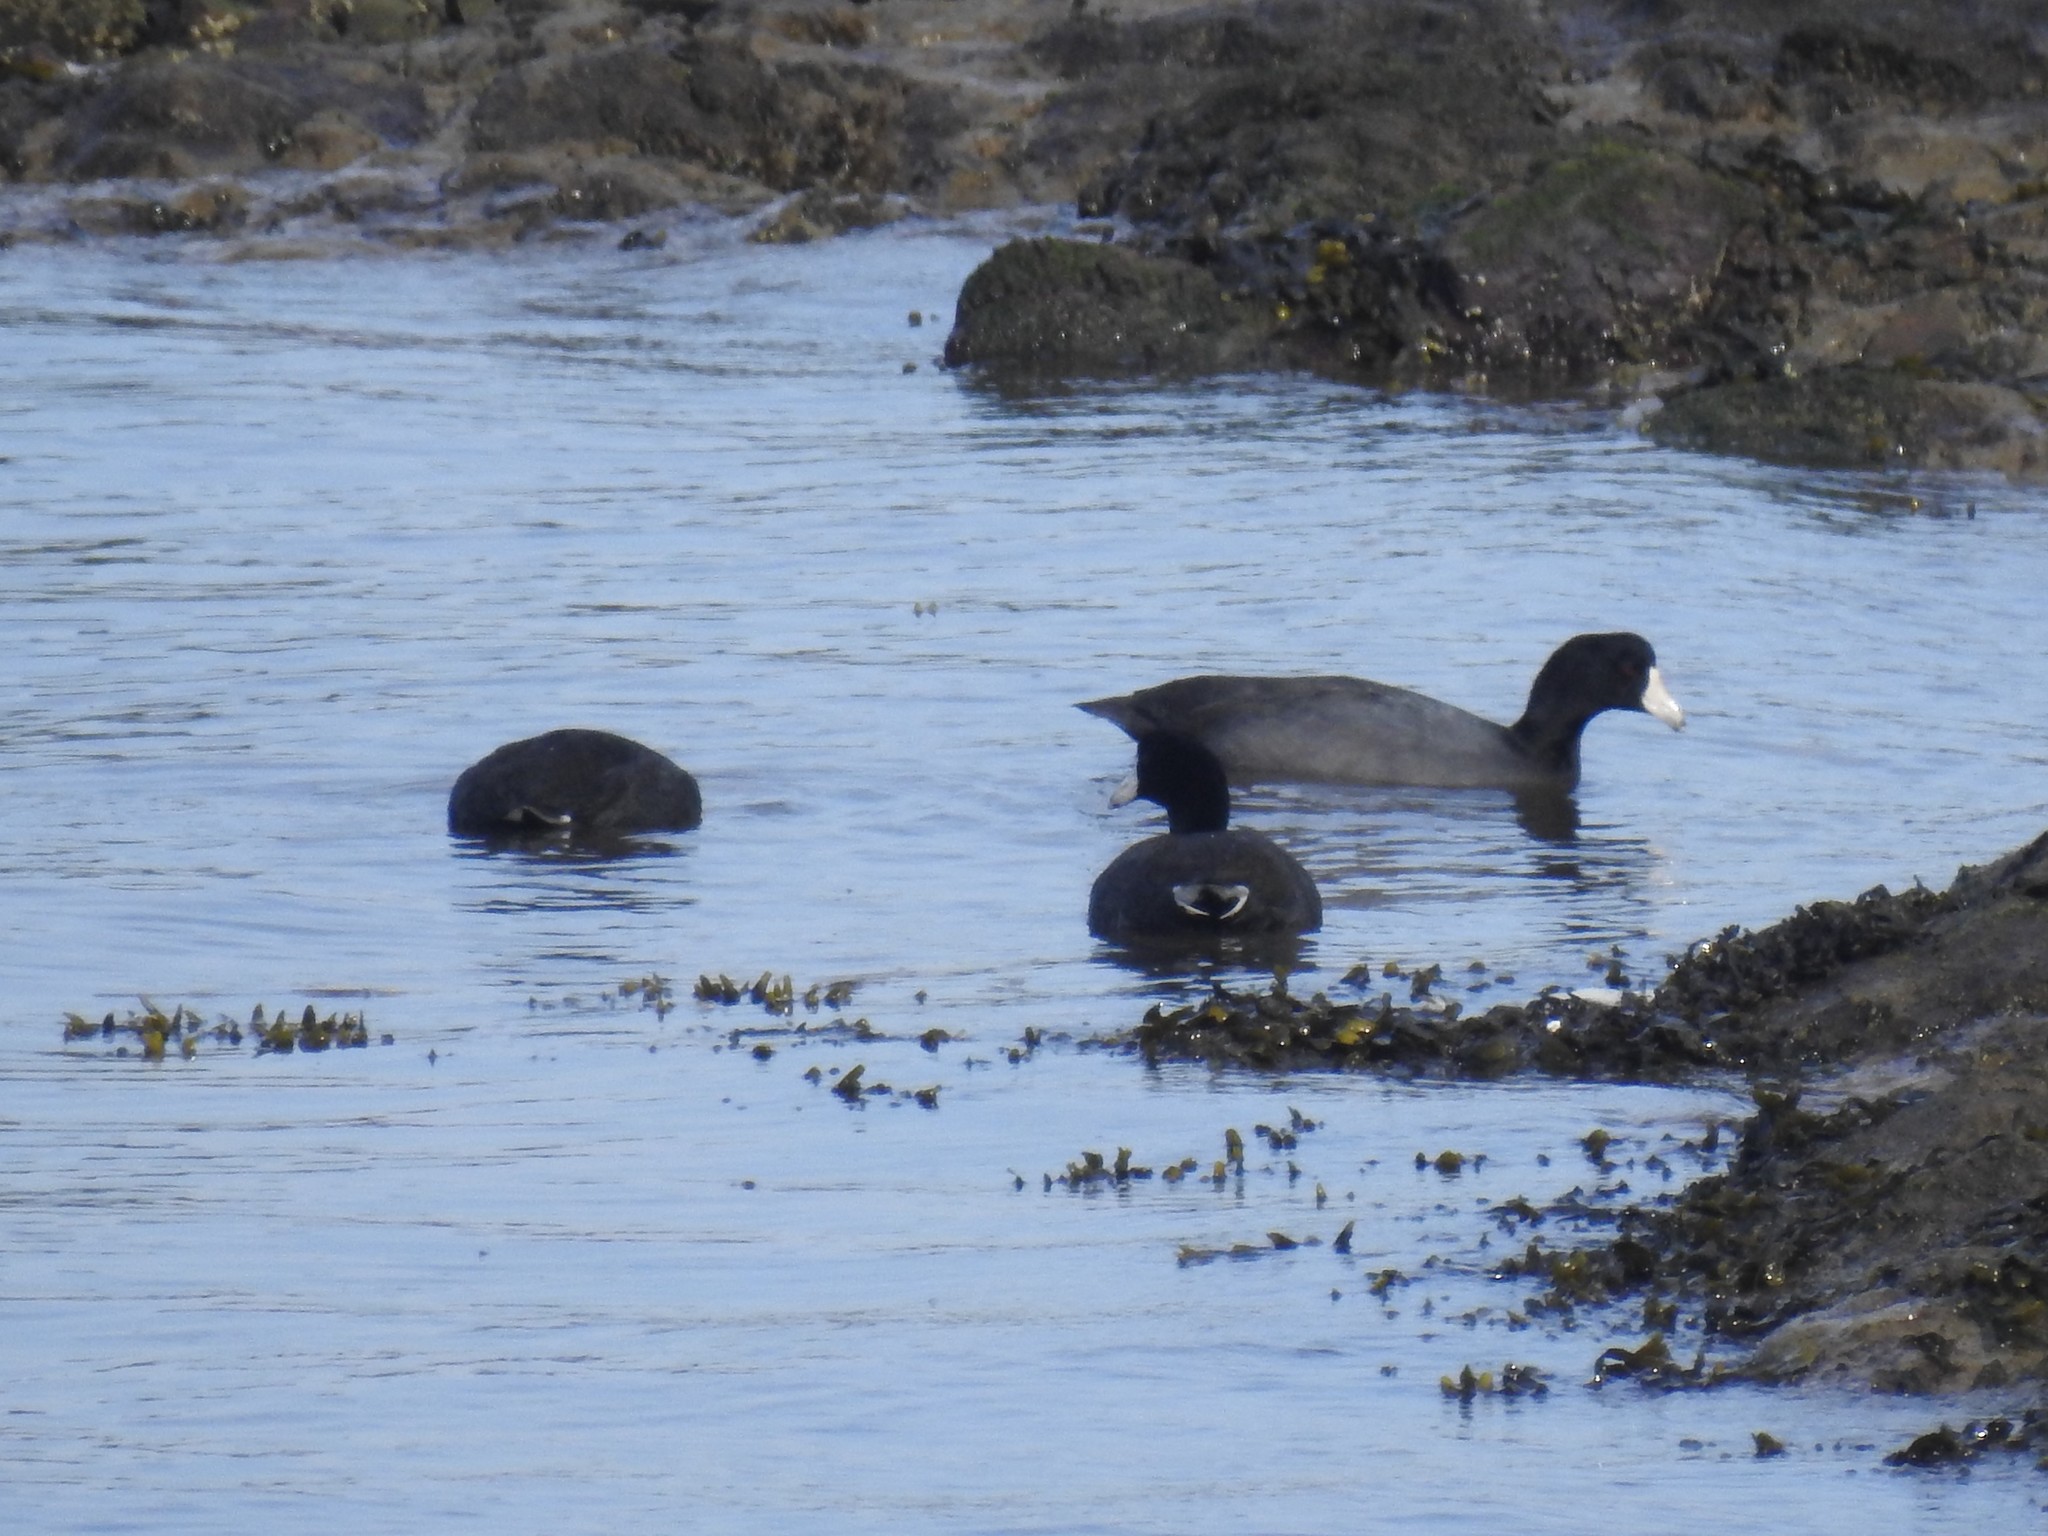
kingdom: Animalia
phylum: Chordata
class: Aves
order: Gruiformes
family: Rallidae
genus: Fulica
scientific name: Fulica americana
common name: American coot
